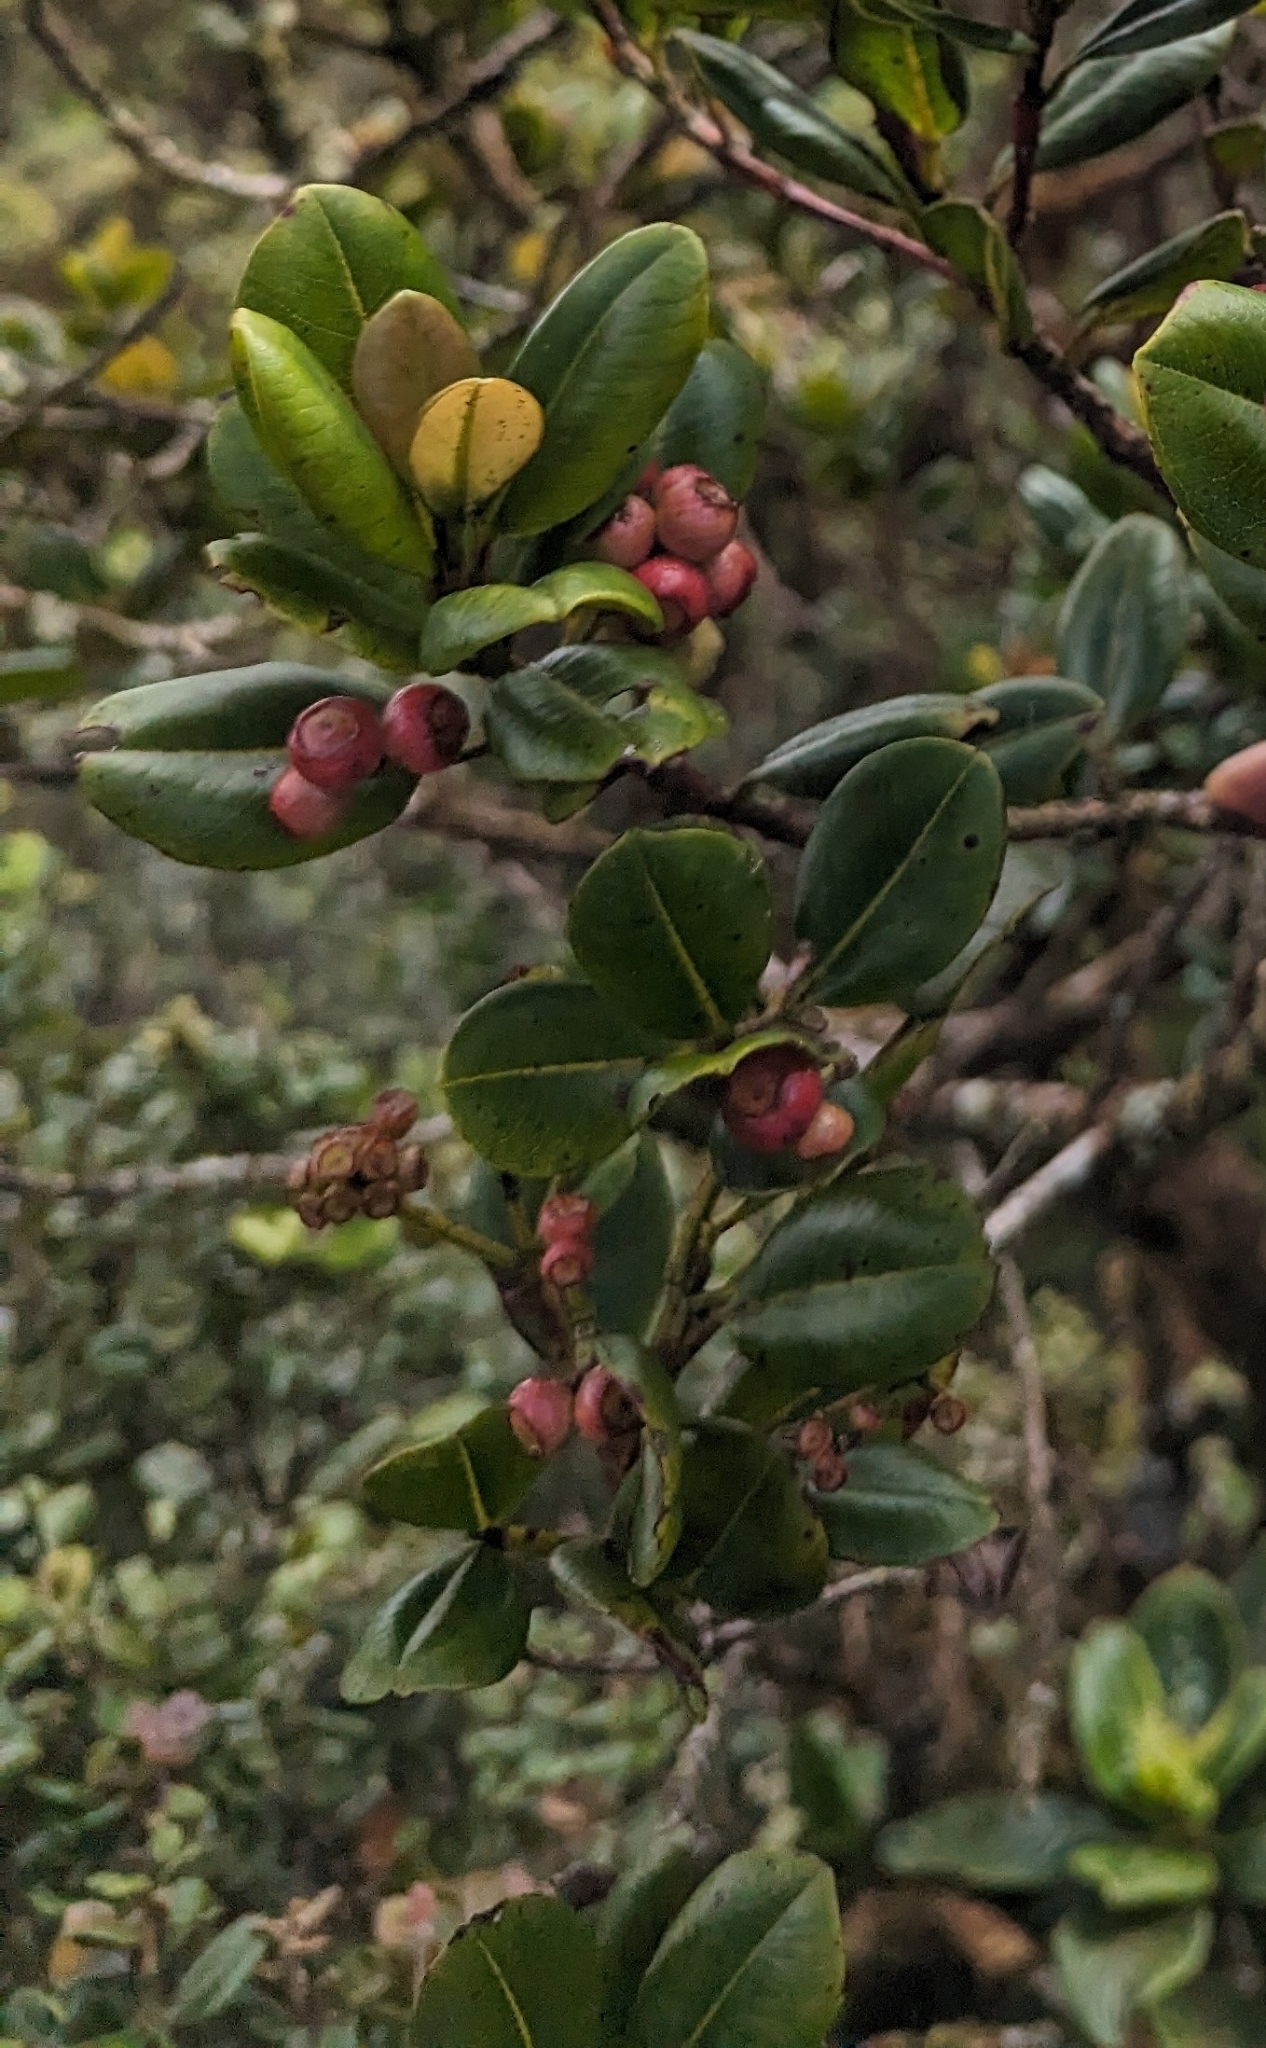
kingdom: Plantae
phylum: Tracheophyta
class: Magnoliopsida
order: Myrtales
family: Myrtaceae
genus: Syzygium
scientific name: Syzygium sandwicense
